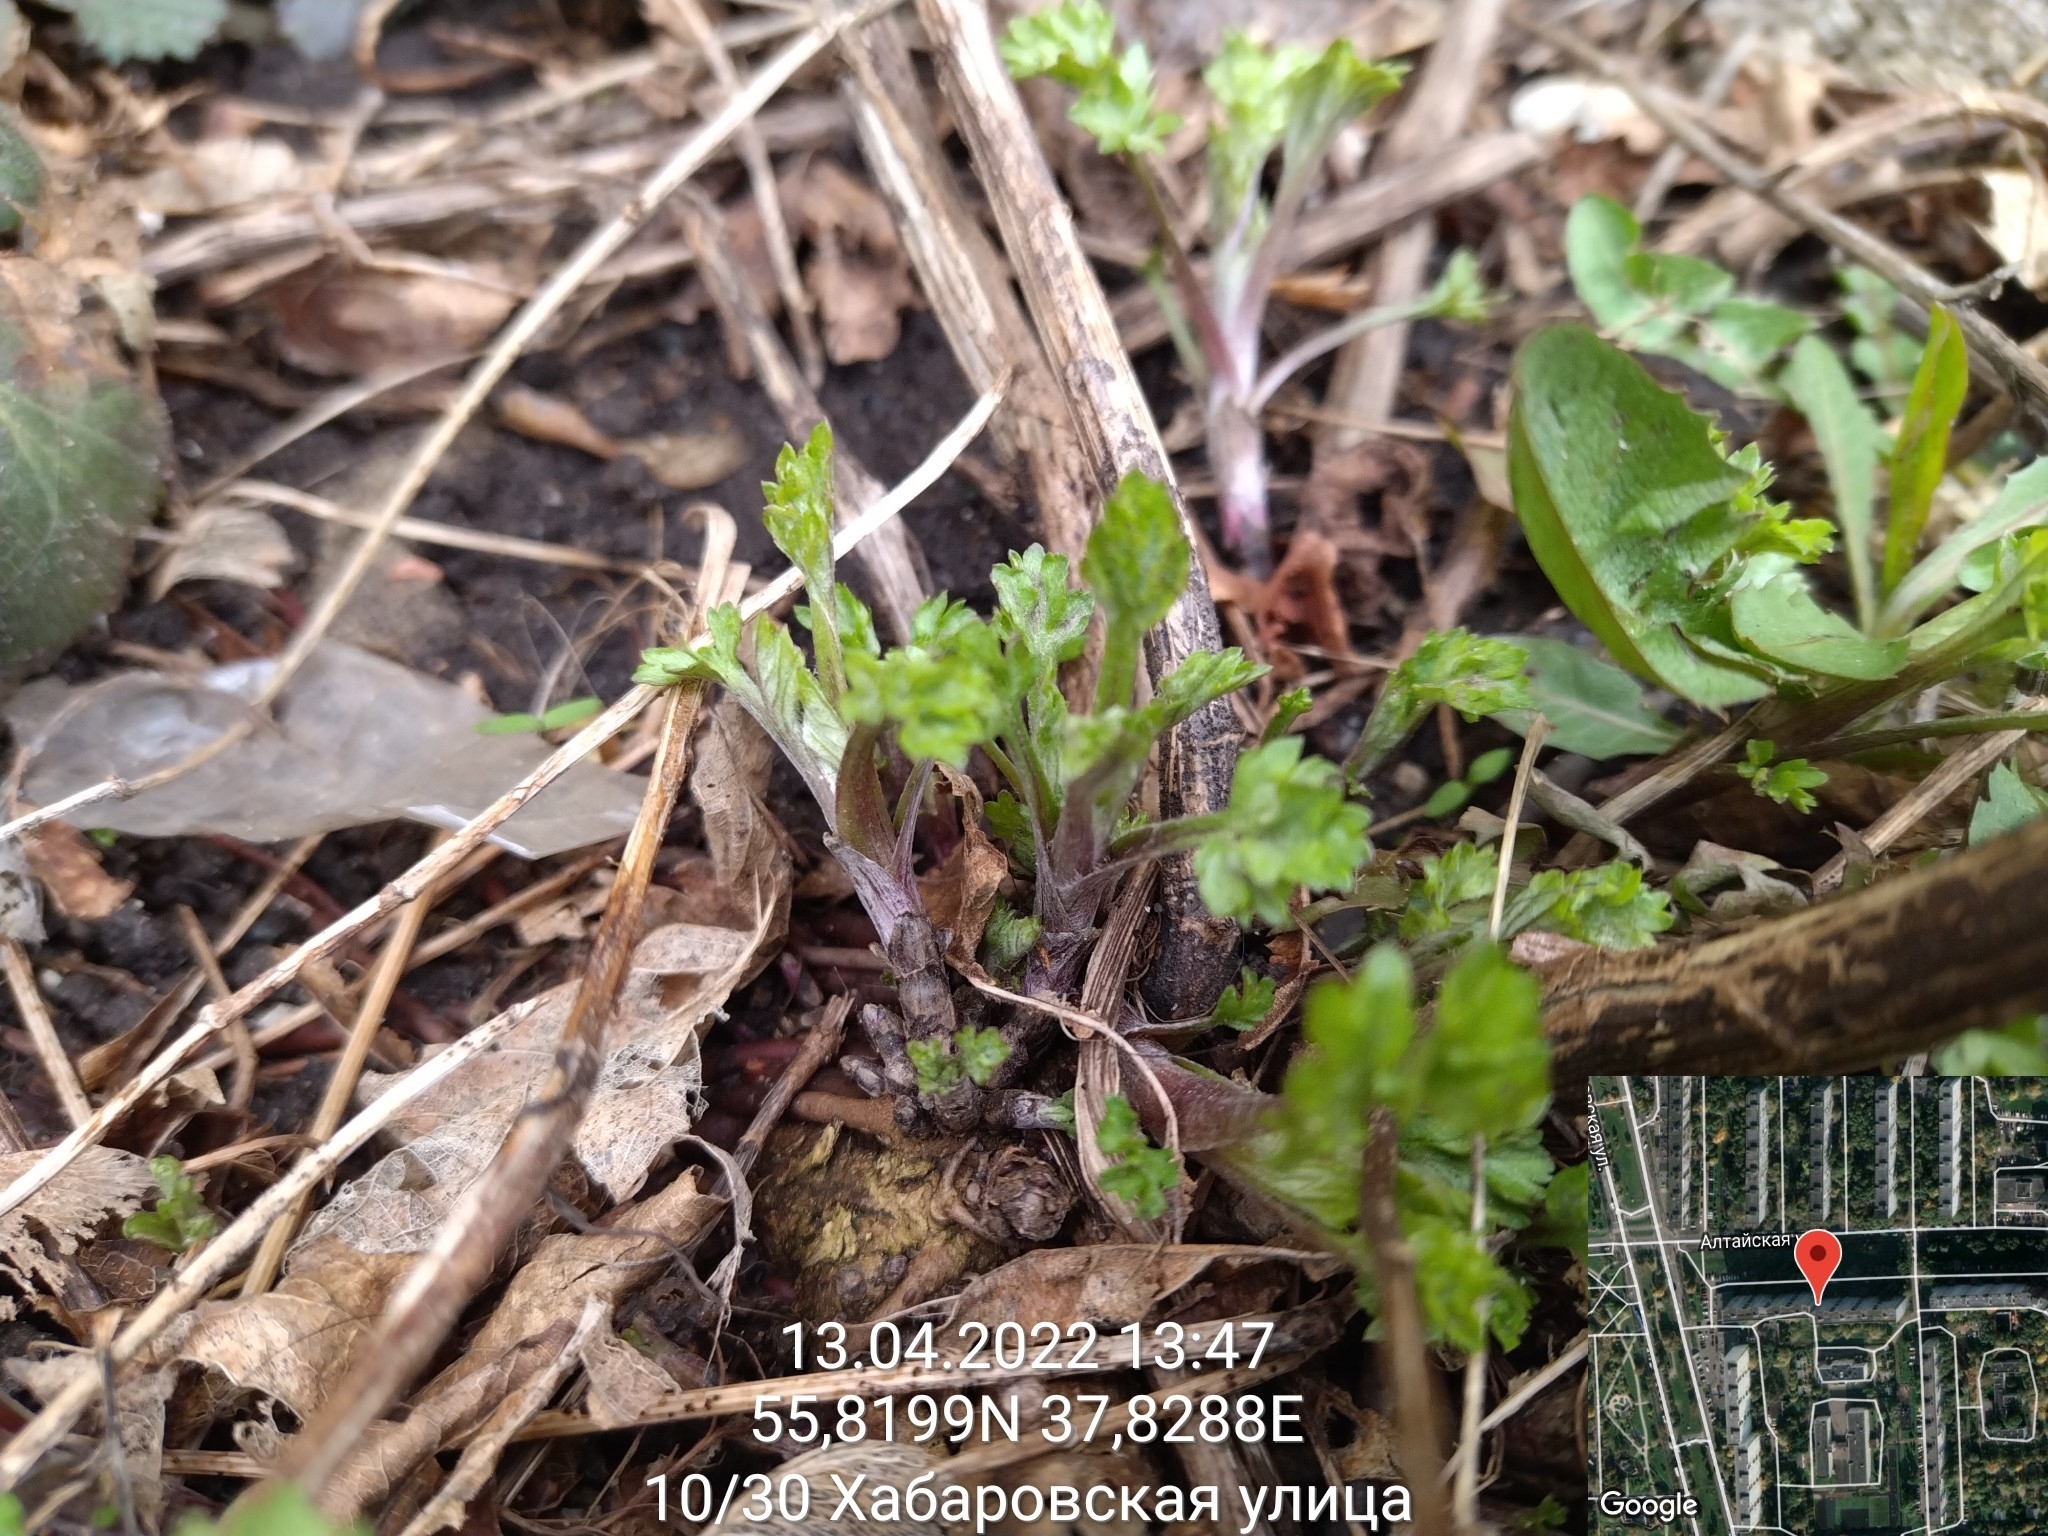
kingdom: Plantae
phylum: Tracheophyta
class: Magnoliopsida
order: Asterales
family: Asteraceae
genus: Artemisia
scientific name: Artemisia vulgaris
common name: Mugwort
